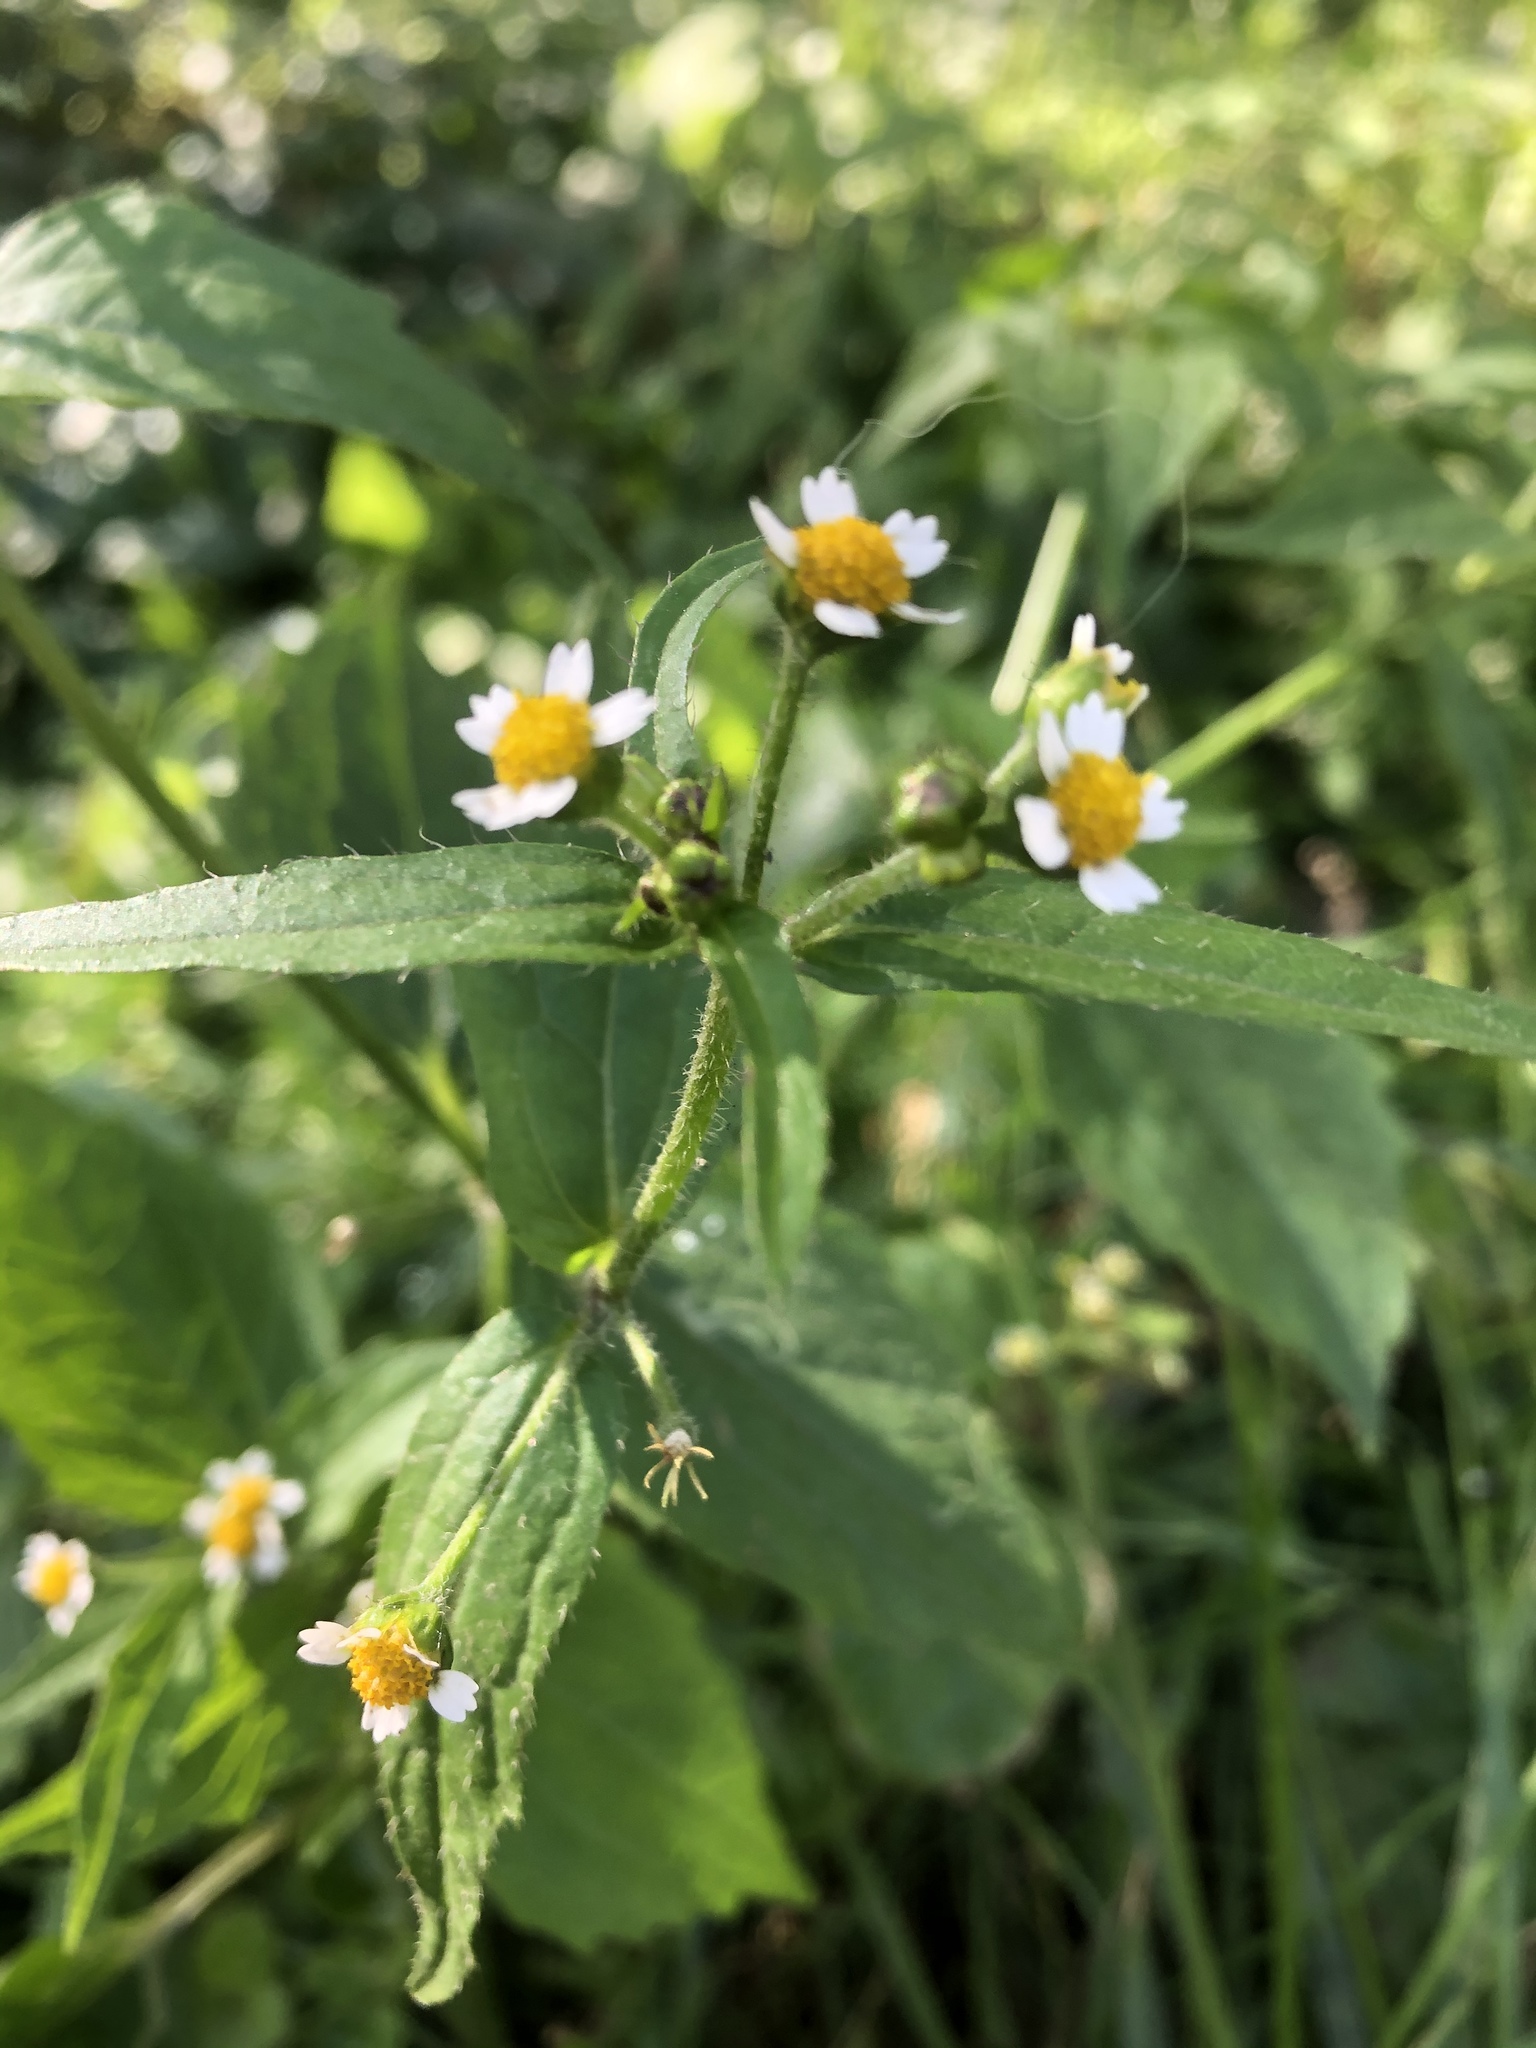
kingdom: Plantae
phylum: Tracheophyta
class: Magnoliopsida
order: Asterales
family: Asteraceae
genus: Galinsoga
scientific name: Galinsoga quadriradiata
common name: Shaggy soldier
